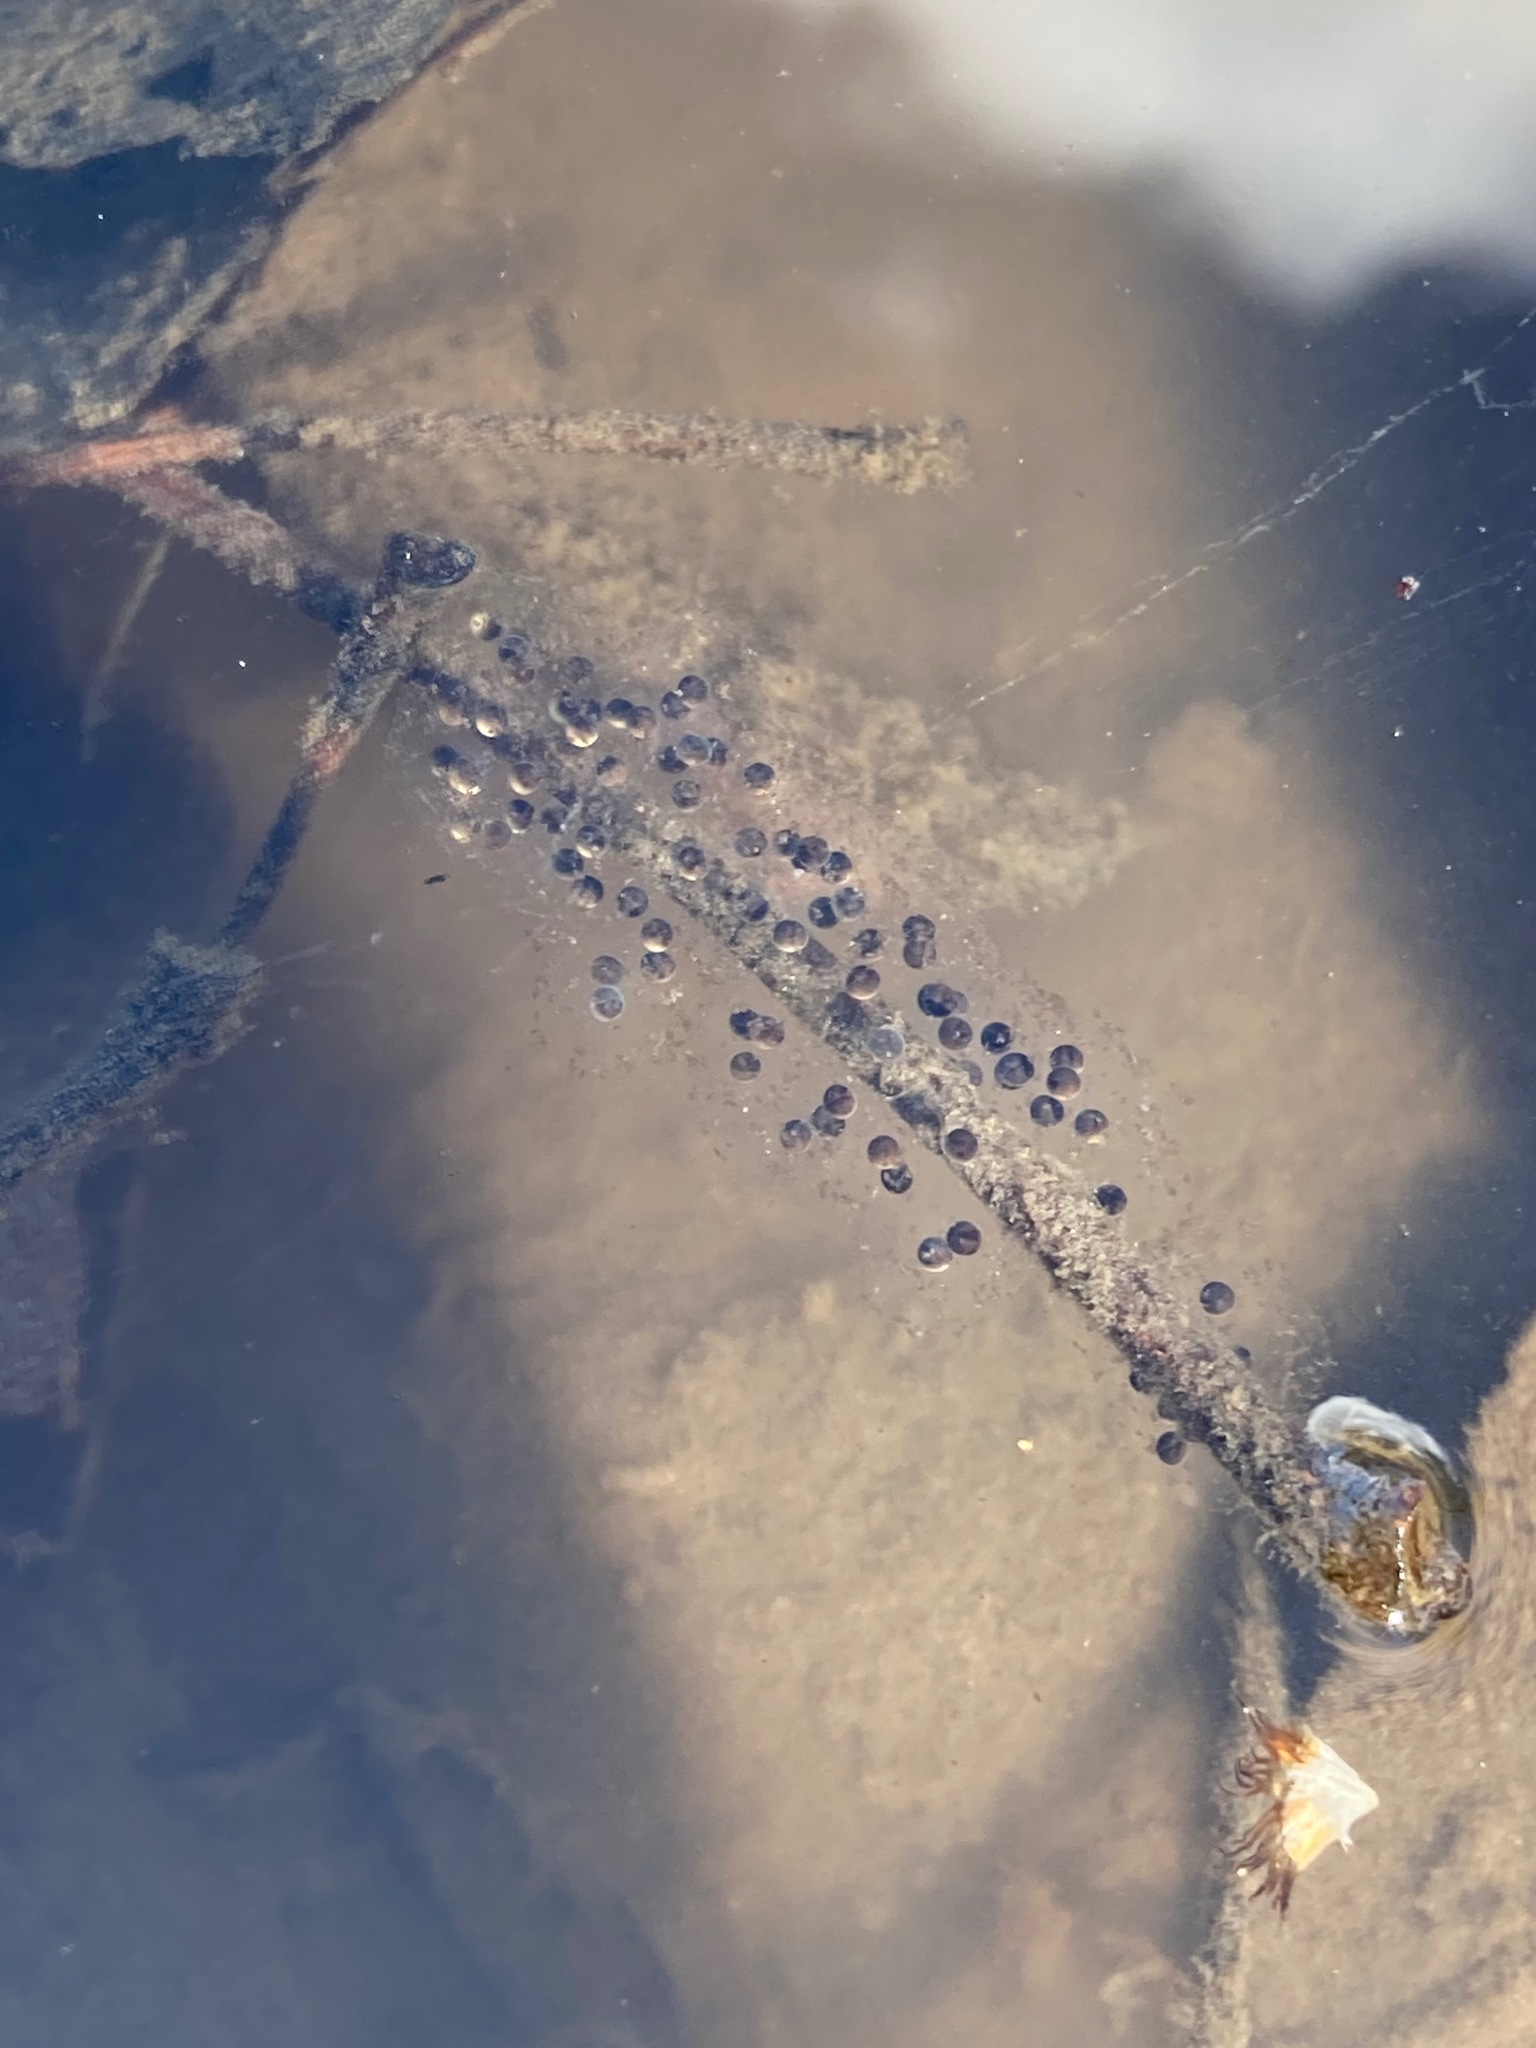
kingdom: Animalia
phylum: Chordata
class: Amphibia
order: Anura
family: Hylidae
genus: Pseudacris
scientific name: Pseudacris regilla
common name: Pacific chorus frog
